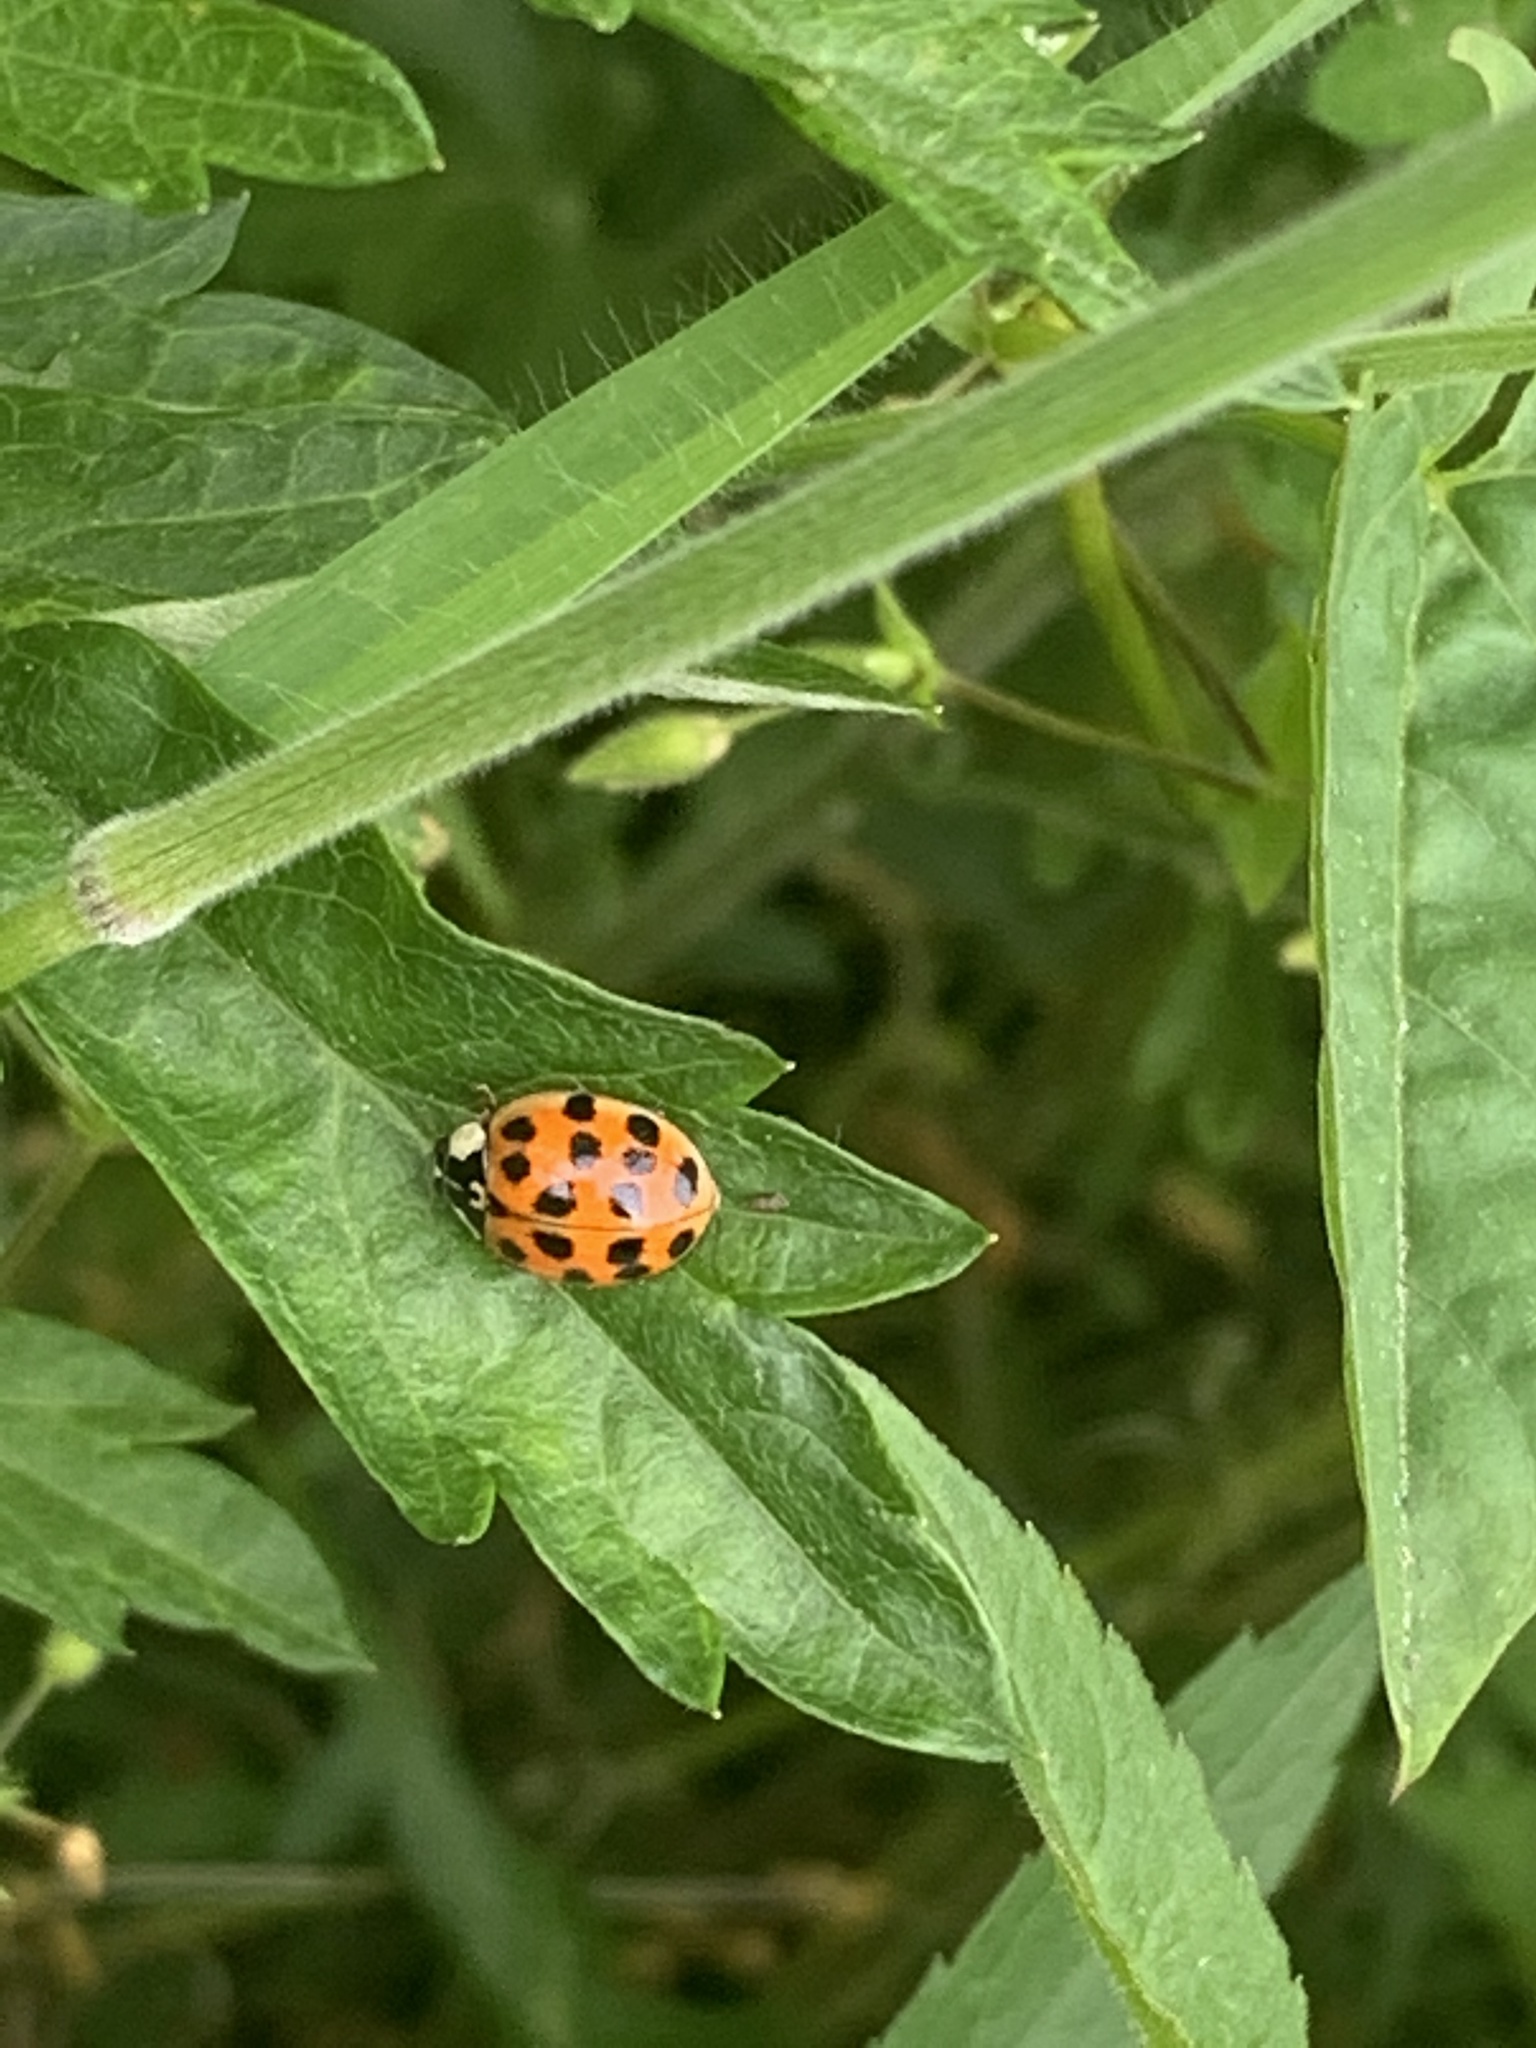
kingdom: Animalia
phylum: Arthropoda
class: Insecta
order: Coleoptera
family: Coccinellidae
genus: Harmonia
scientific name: Harmonia axyridis
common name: Harlequin ladybird
